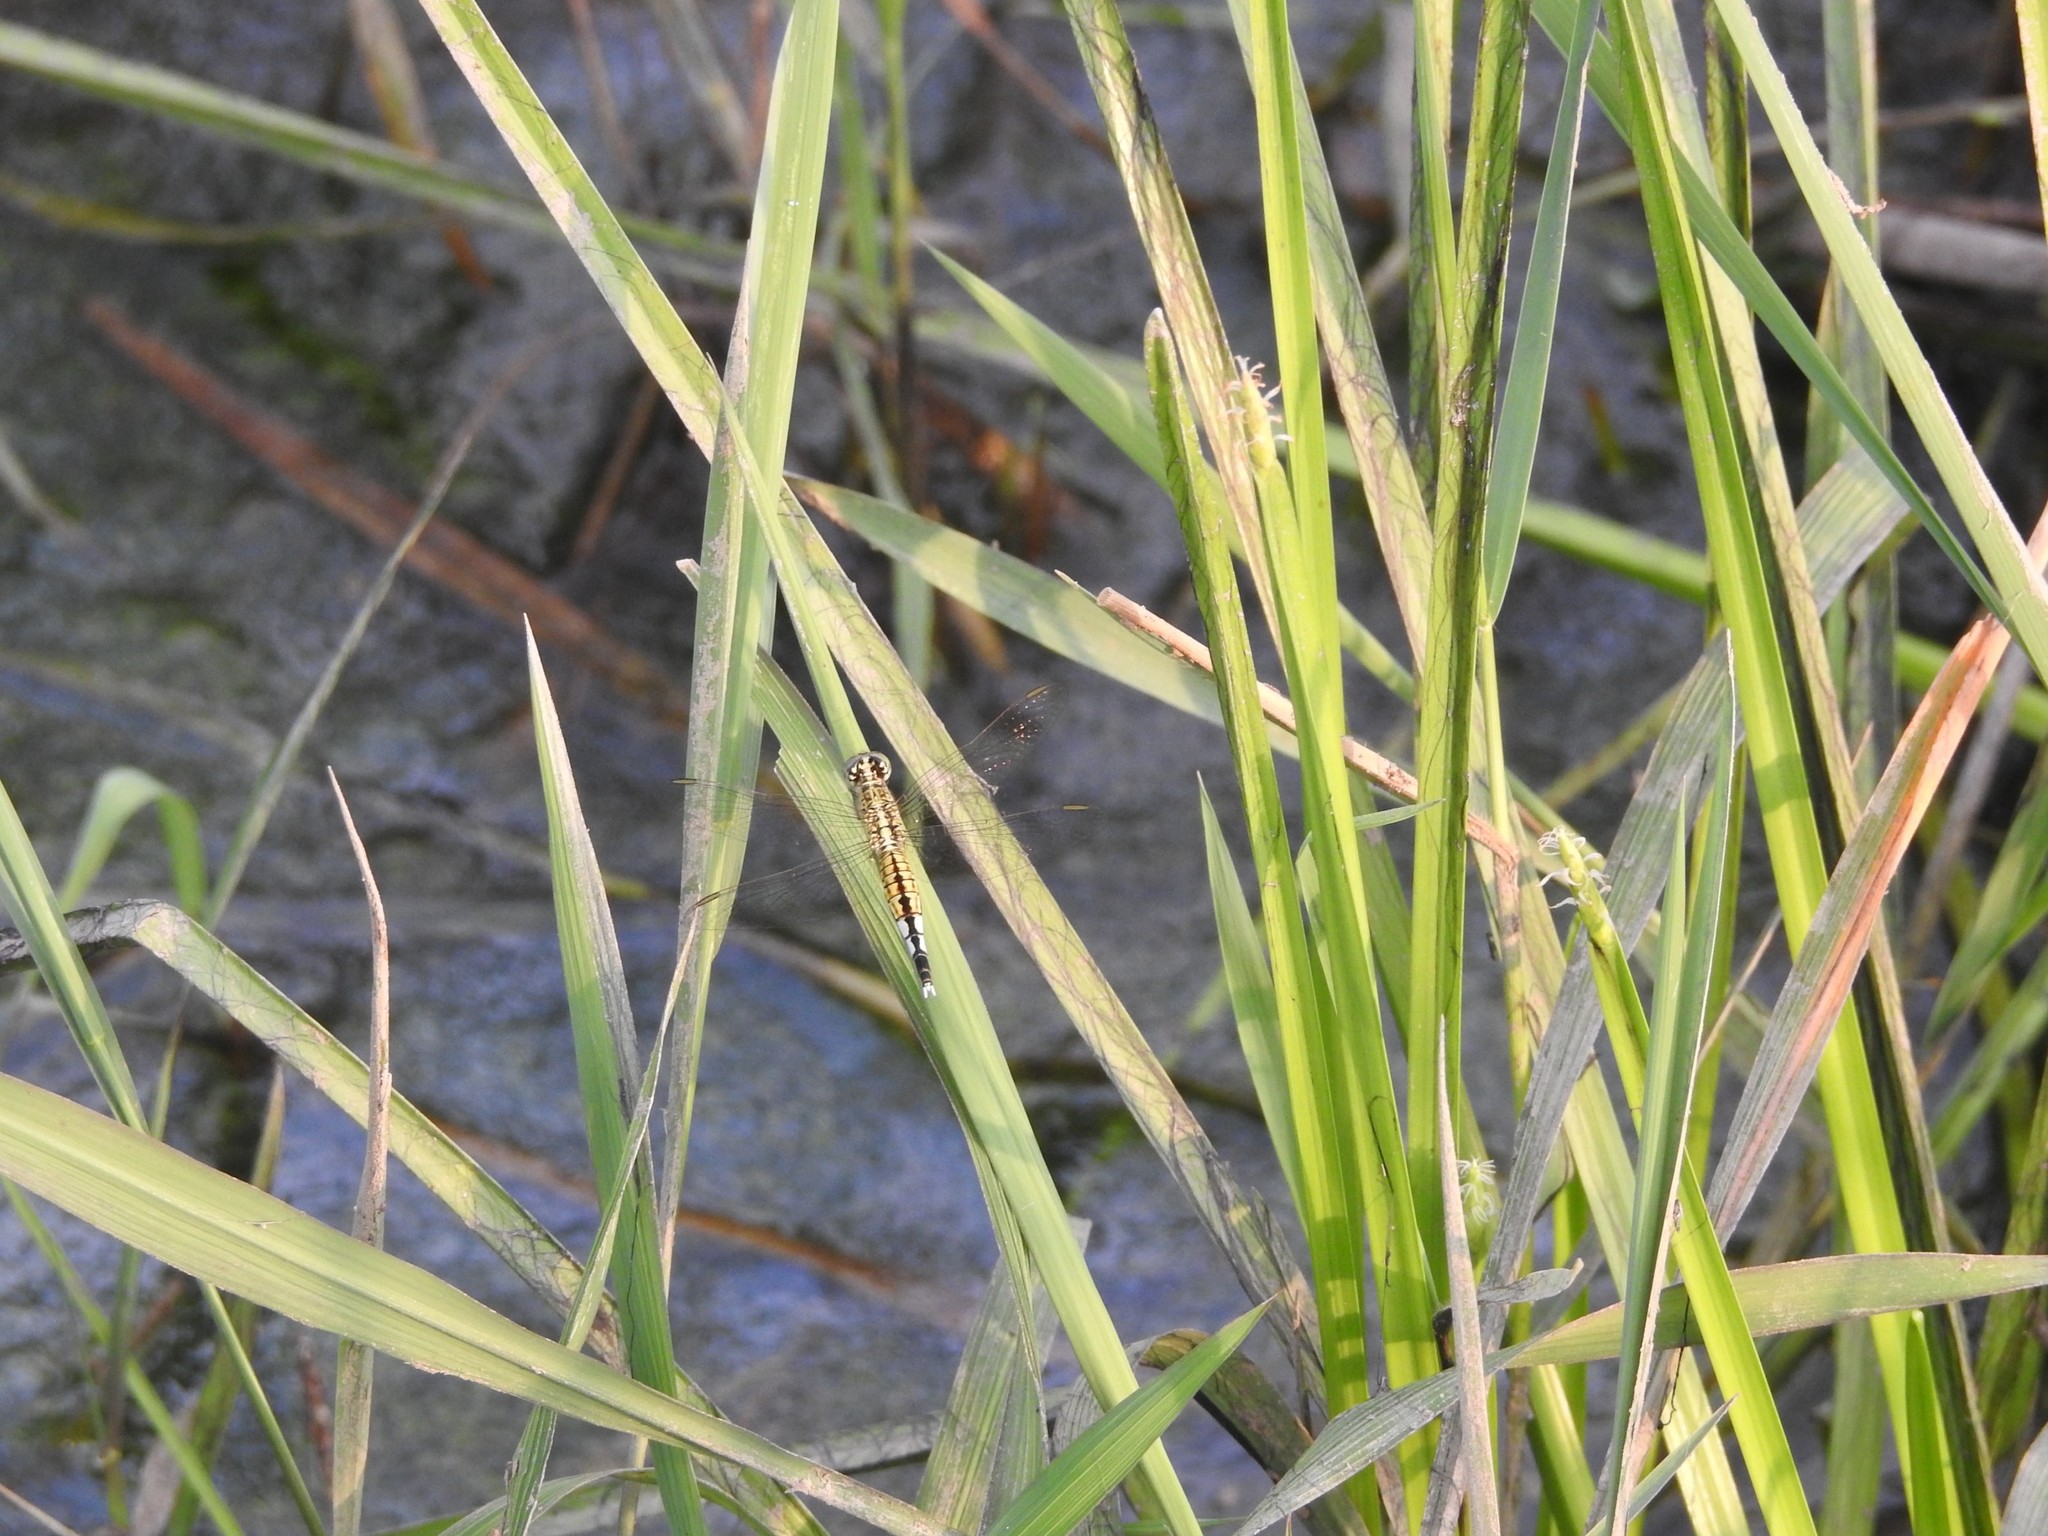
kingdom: Animalia
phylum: Arthropoda
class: Insecta
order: Odonata
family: Libellulidae
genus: Acisoma
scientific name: Acisoma panorpoides
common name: Asian pintail
